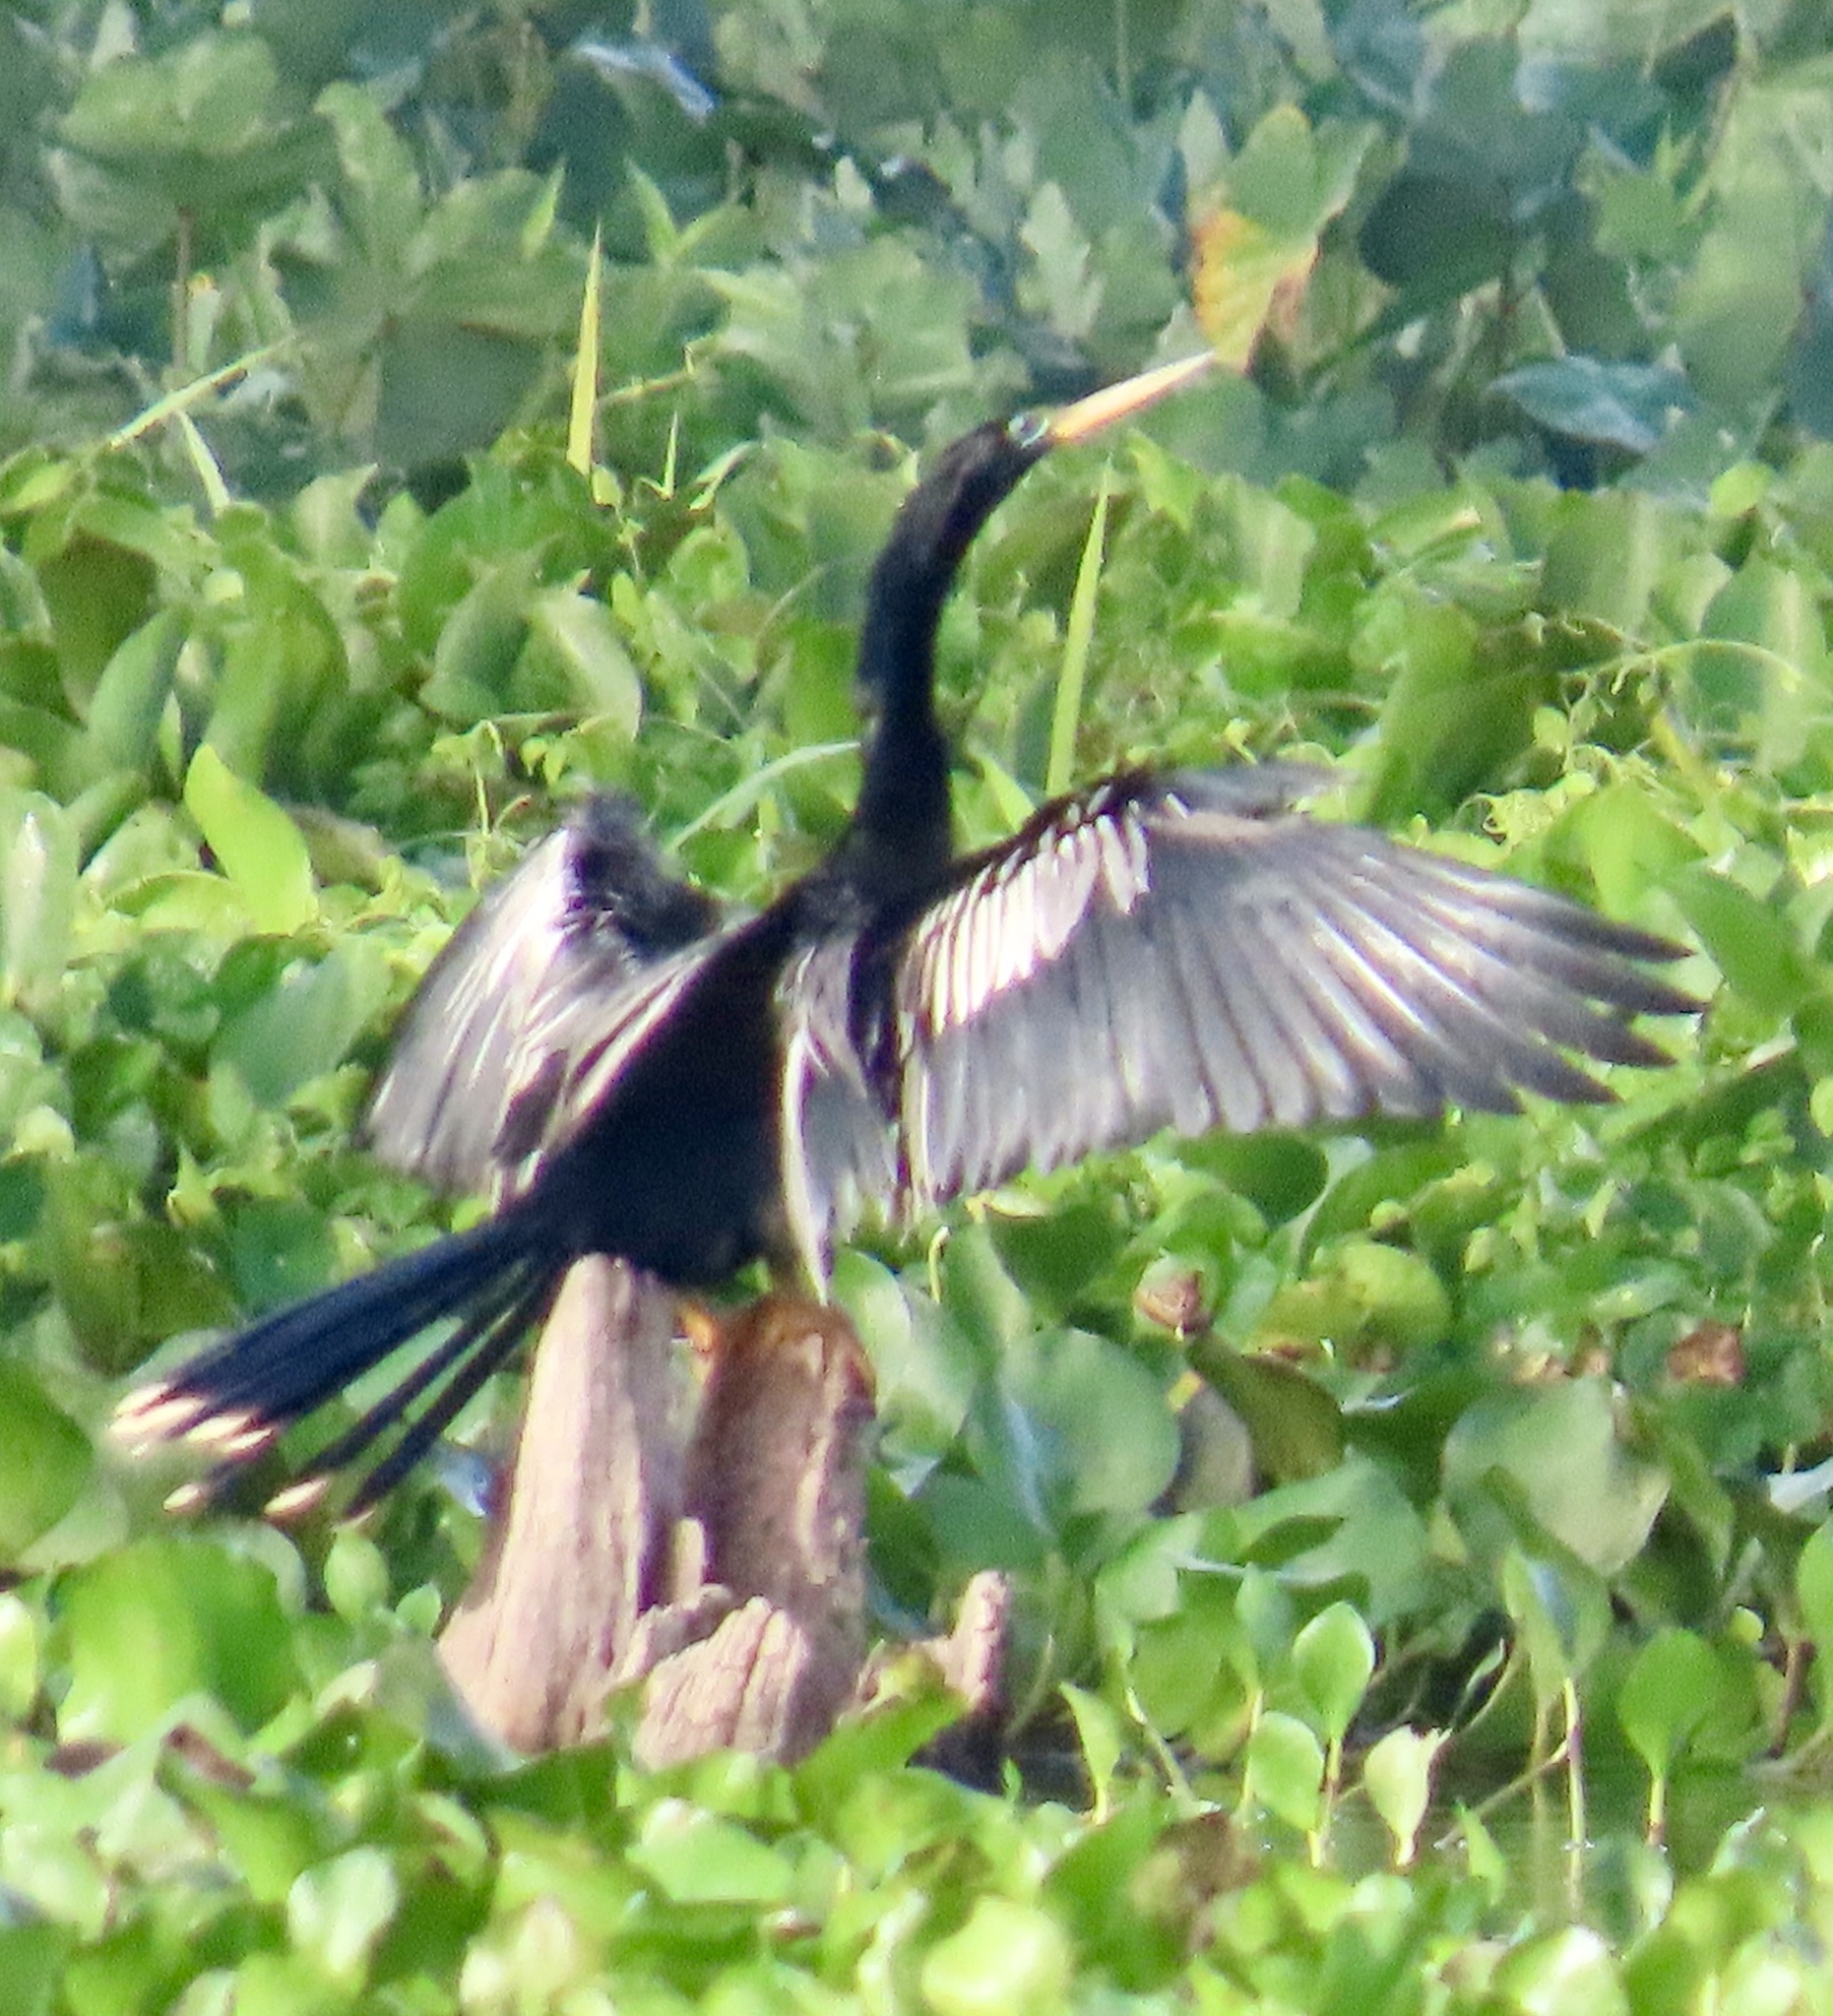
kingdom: Animalia
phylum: Chordata
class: Aves
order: Suliformes
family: Anhingidae
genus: Anhinga
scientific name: Anhinga anhinga
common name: Anhinga
